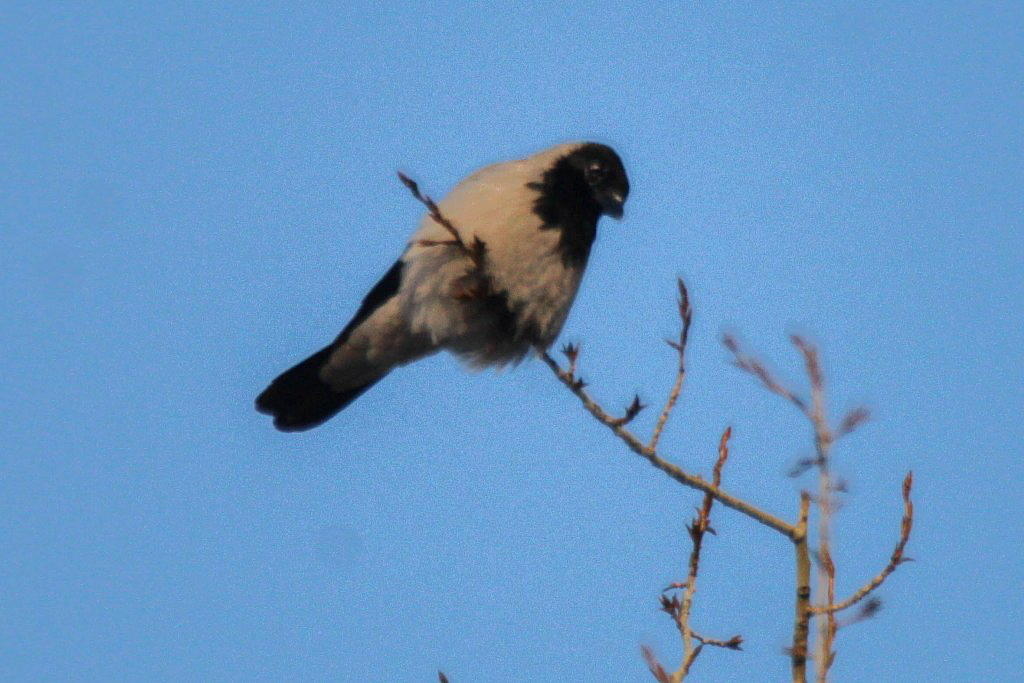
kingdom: Animalia
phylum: Chordata
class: Aves
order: Passeriformes
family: Corvidae
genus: Corvus
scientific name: Corvus cornix
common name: Hooded crow
